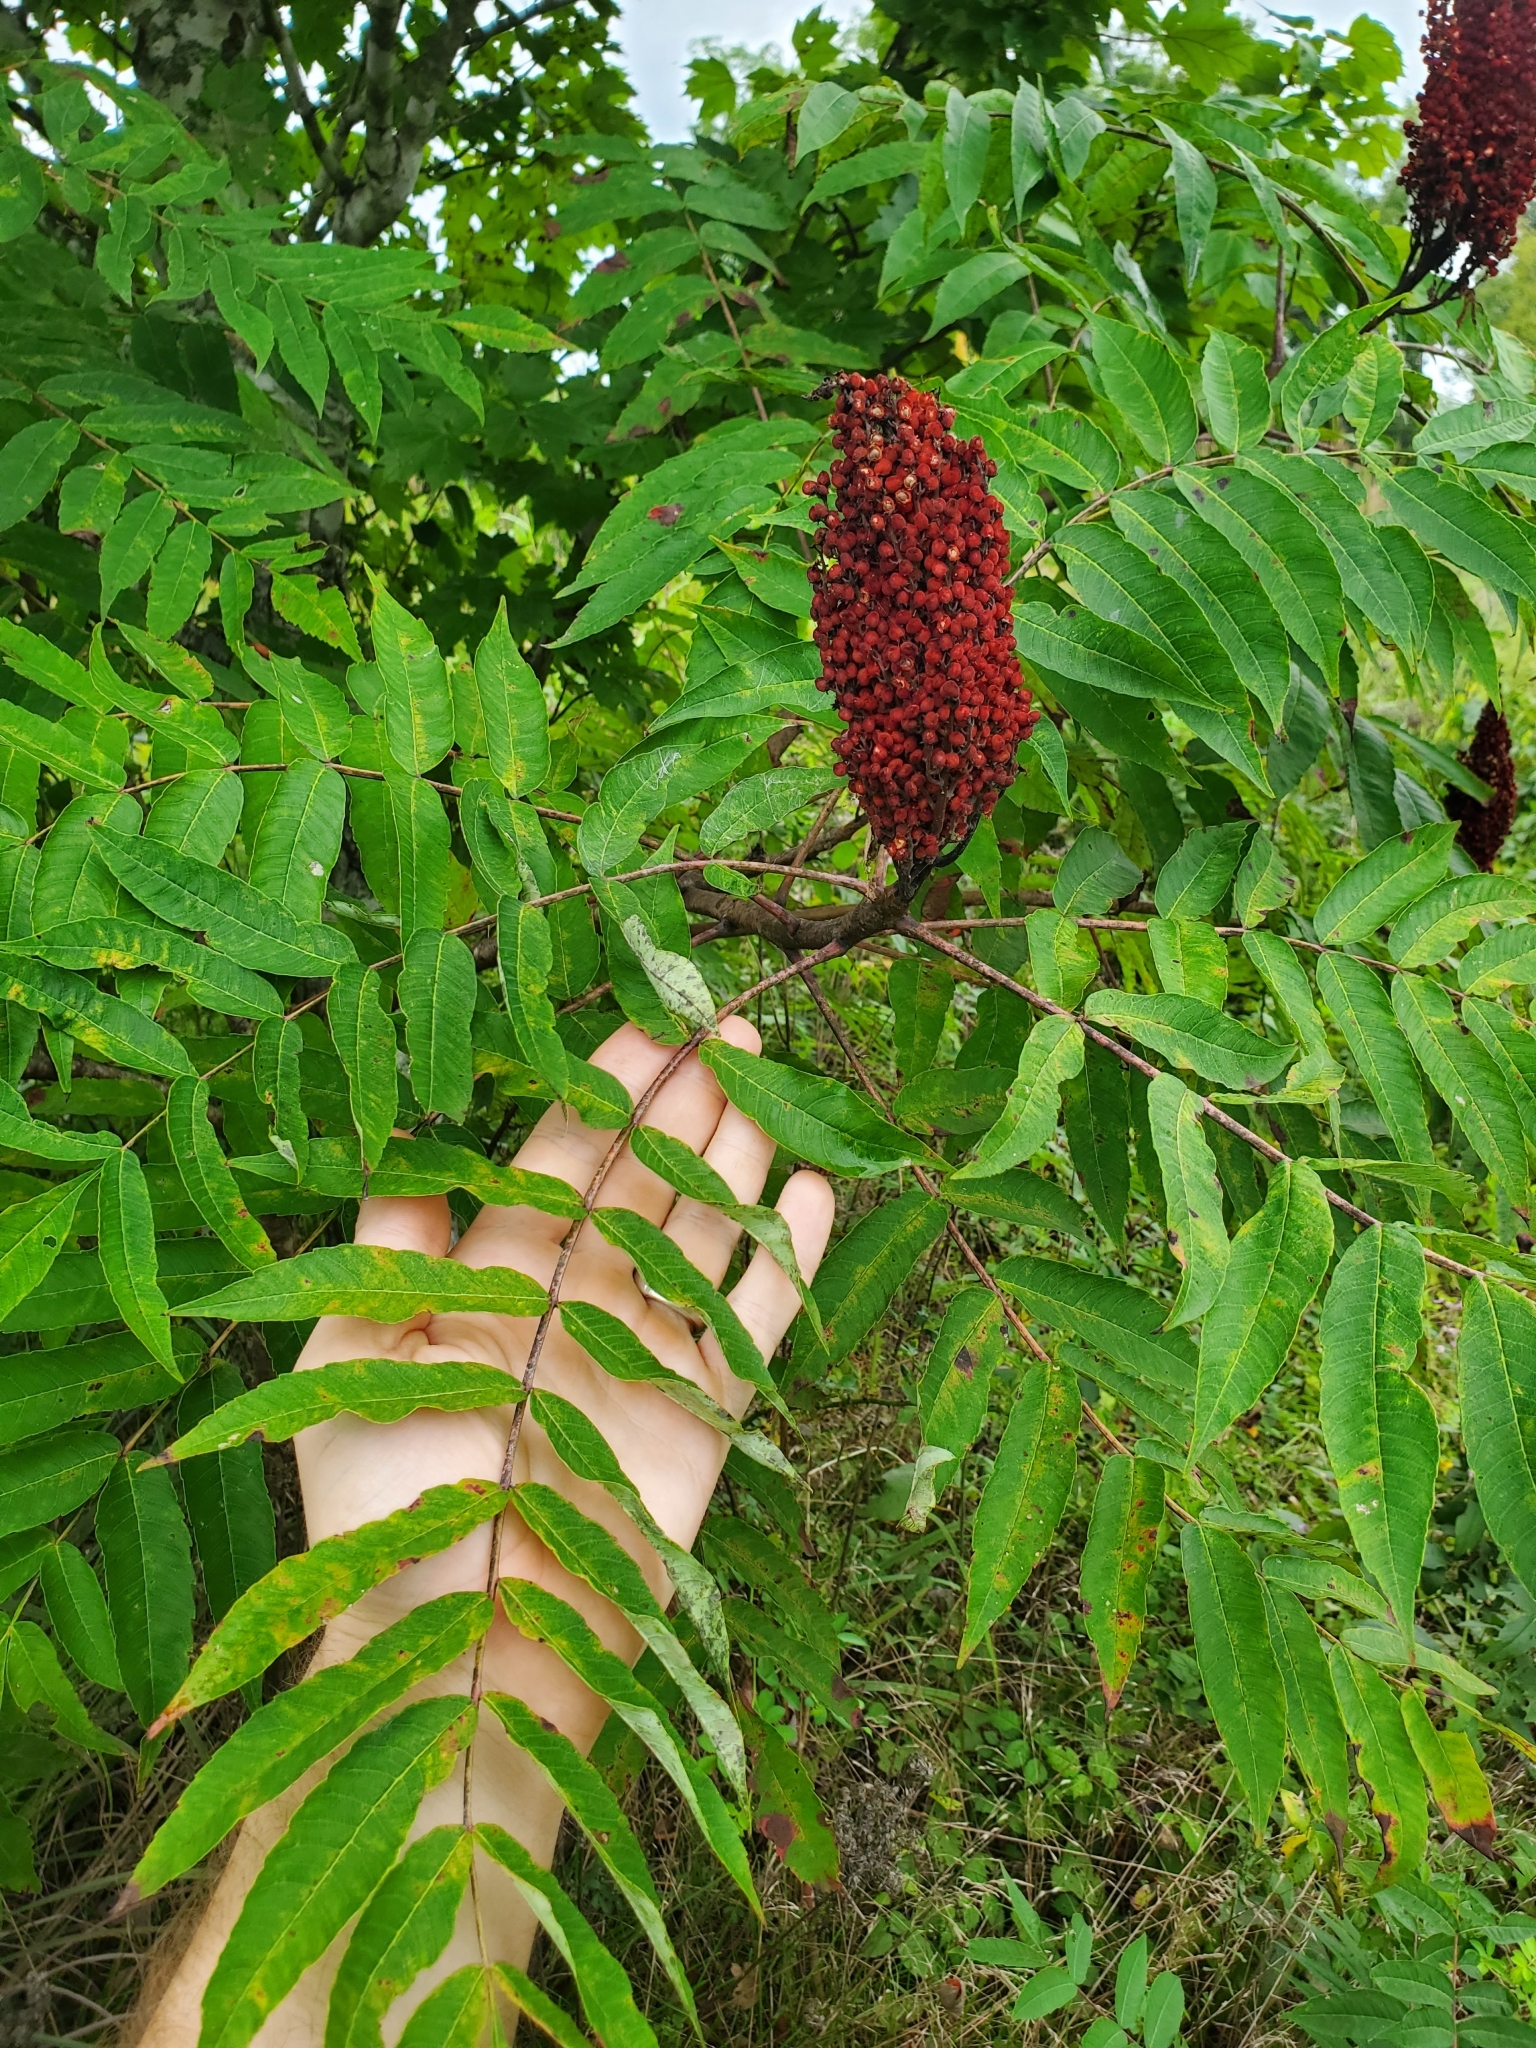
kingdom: Plantae
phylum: Tracheophyta
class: Magnoliopsida
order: Sapindales
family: Anacardiaceae
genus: Rhus
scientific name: Rhus glabra
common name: Scarlet sumac
